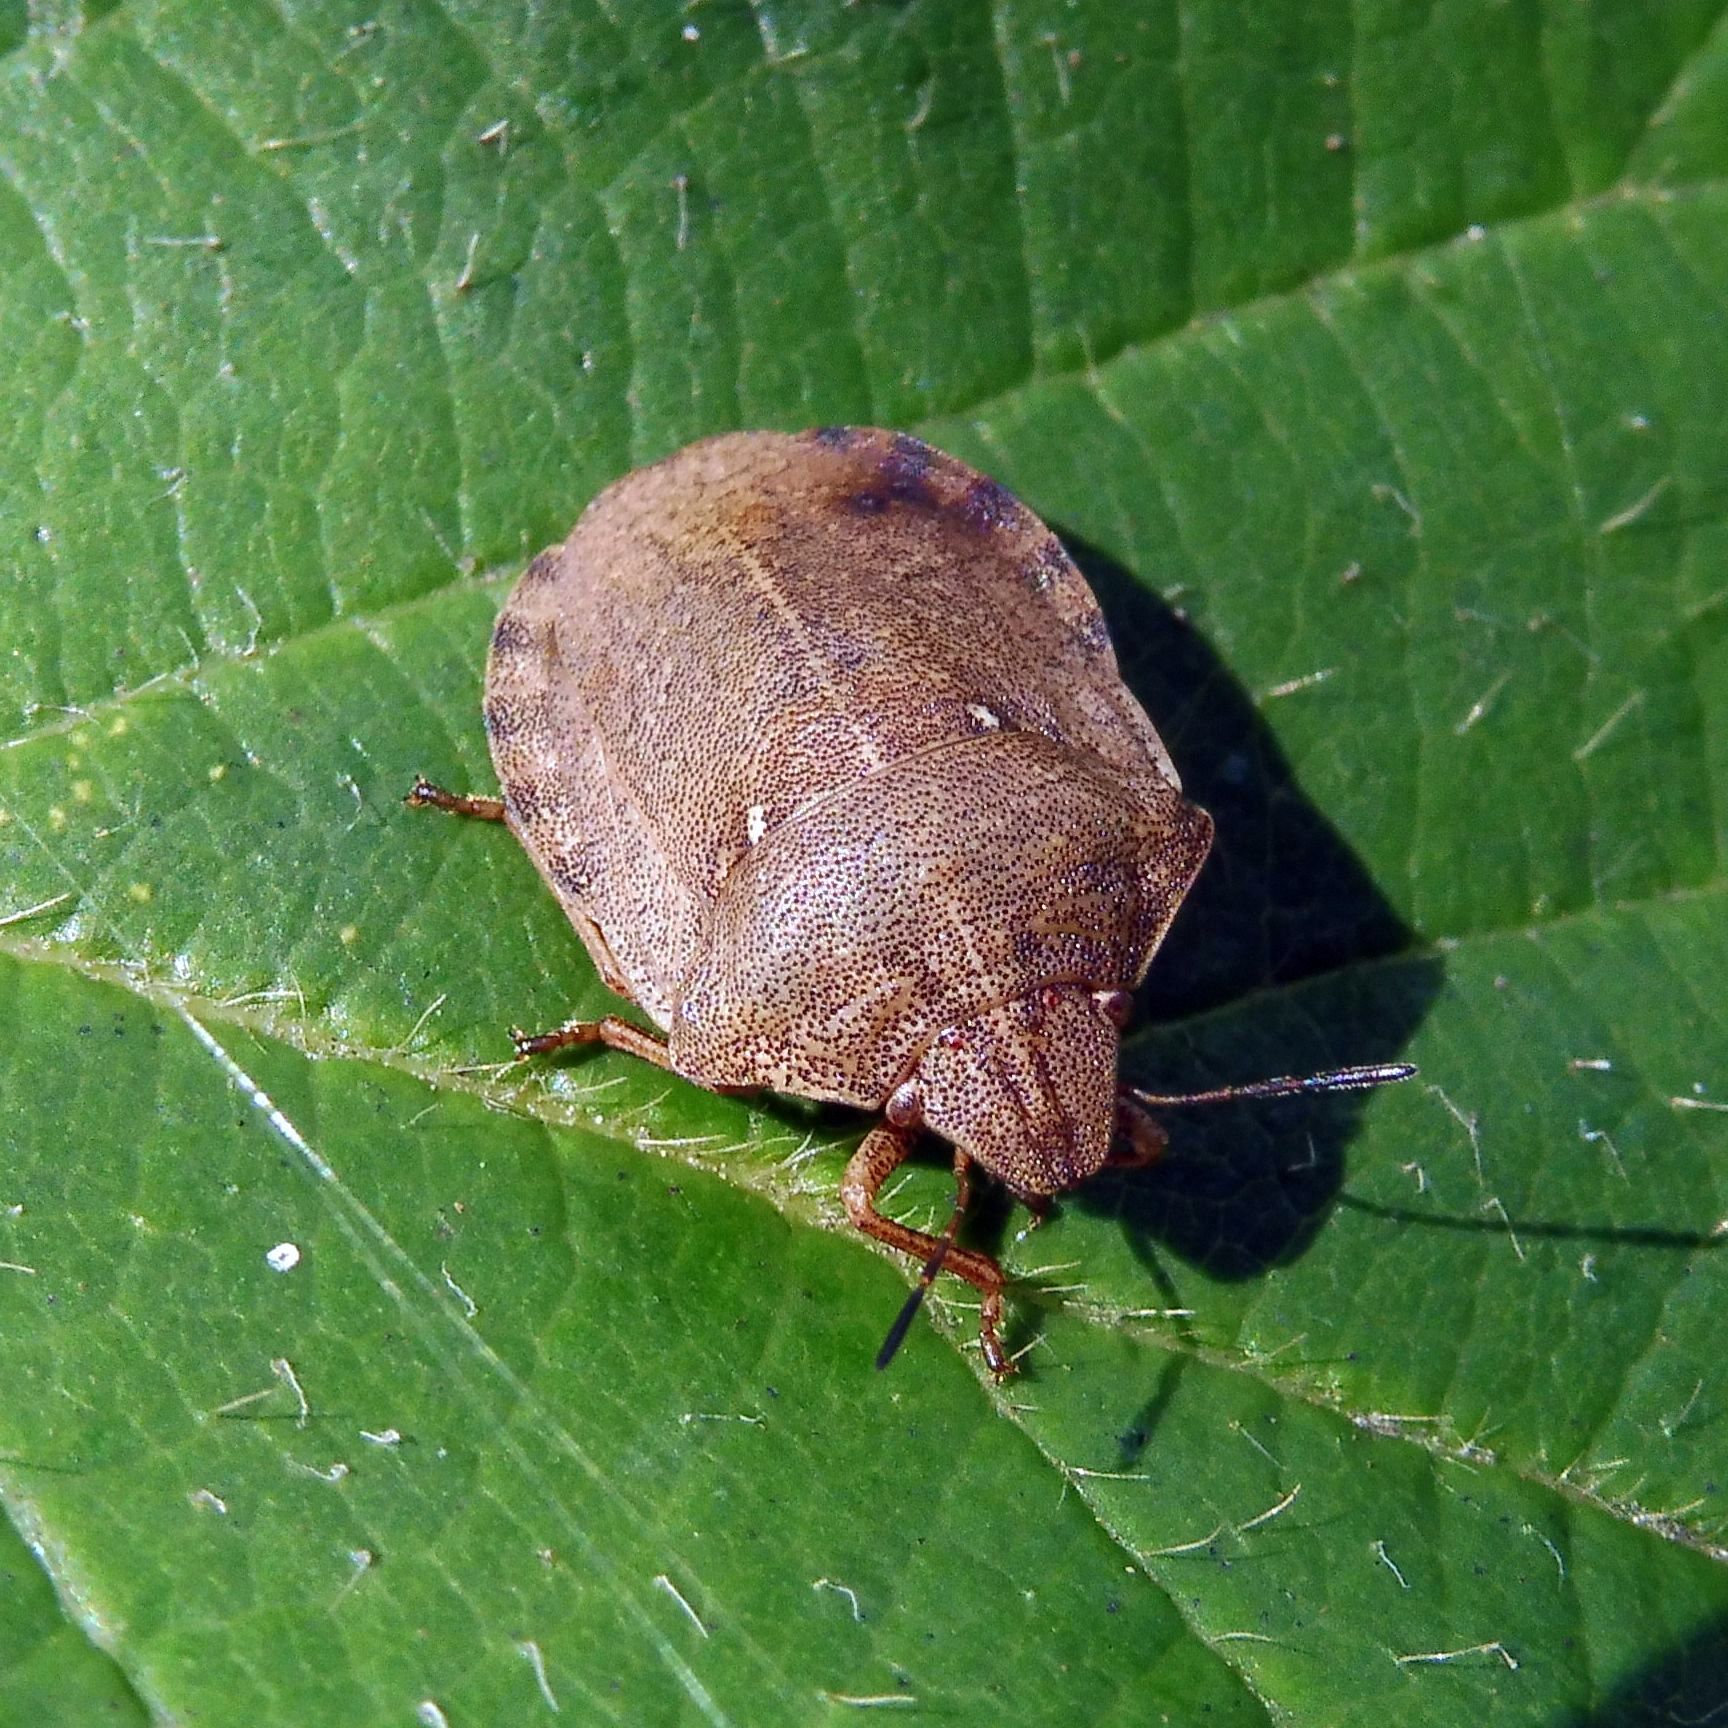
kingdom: Animalia
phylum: Arthropoda
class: Insecta
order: Hemiptera
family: Scutelleridae
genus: Eurygaster
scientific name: Eurygaster testudinaria
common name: Tortoise bug
